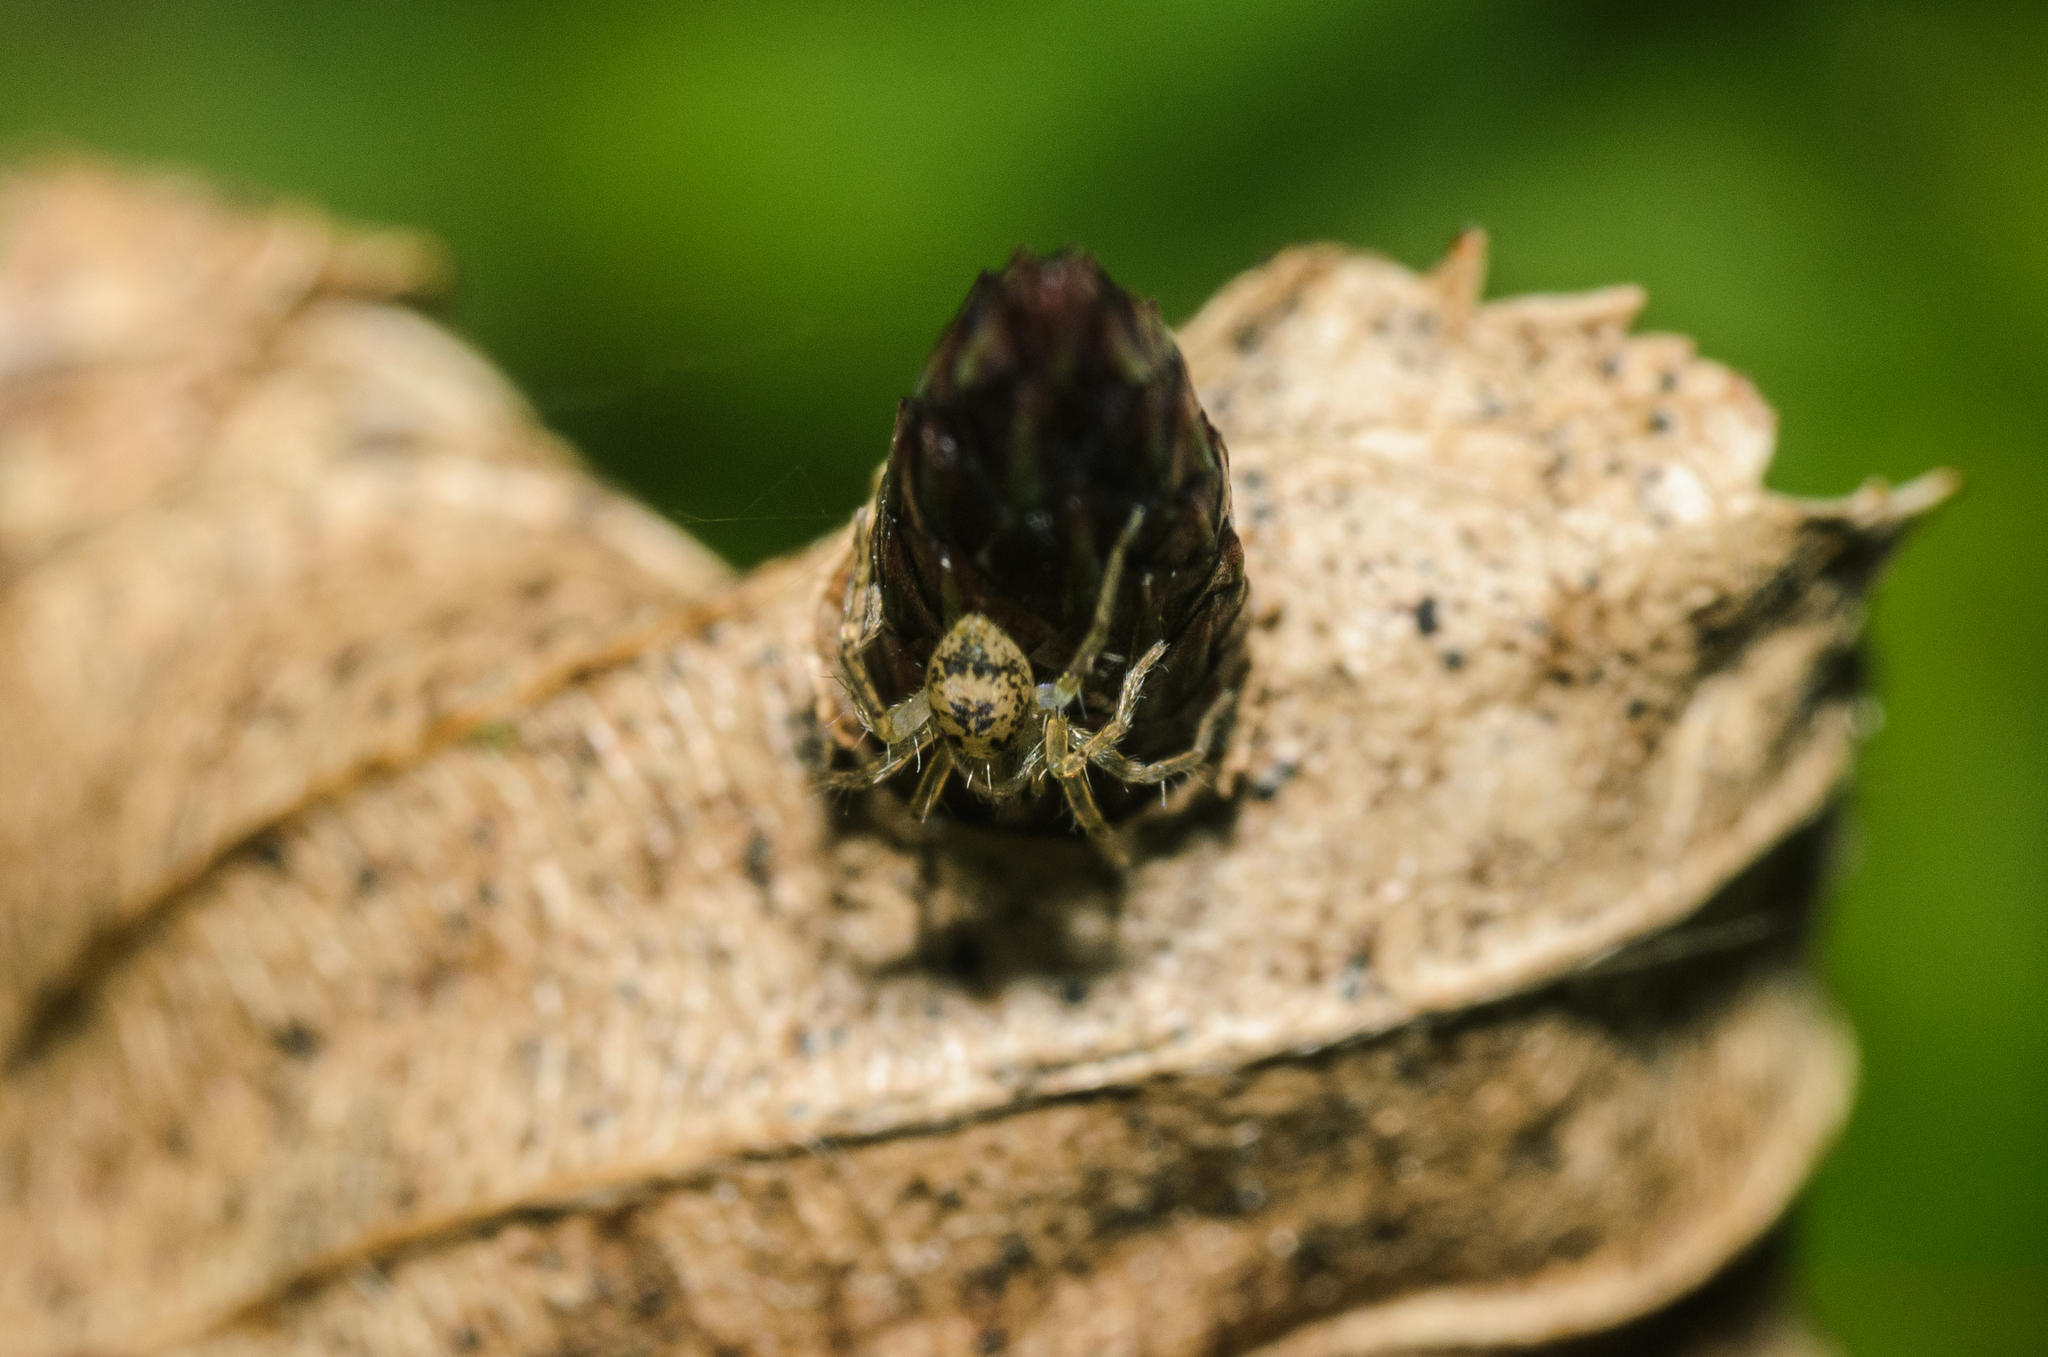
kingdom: Animalia
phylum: Arthropoda
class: Arachnida
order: Araneae
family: Anyphaenidae
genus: Anyphaena
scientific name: Anyphaena accentuata
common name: Buzzing spider
